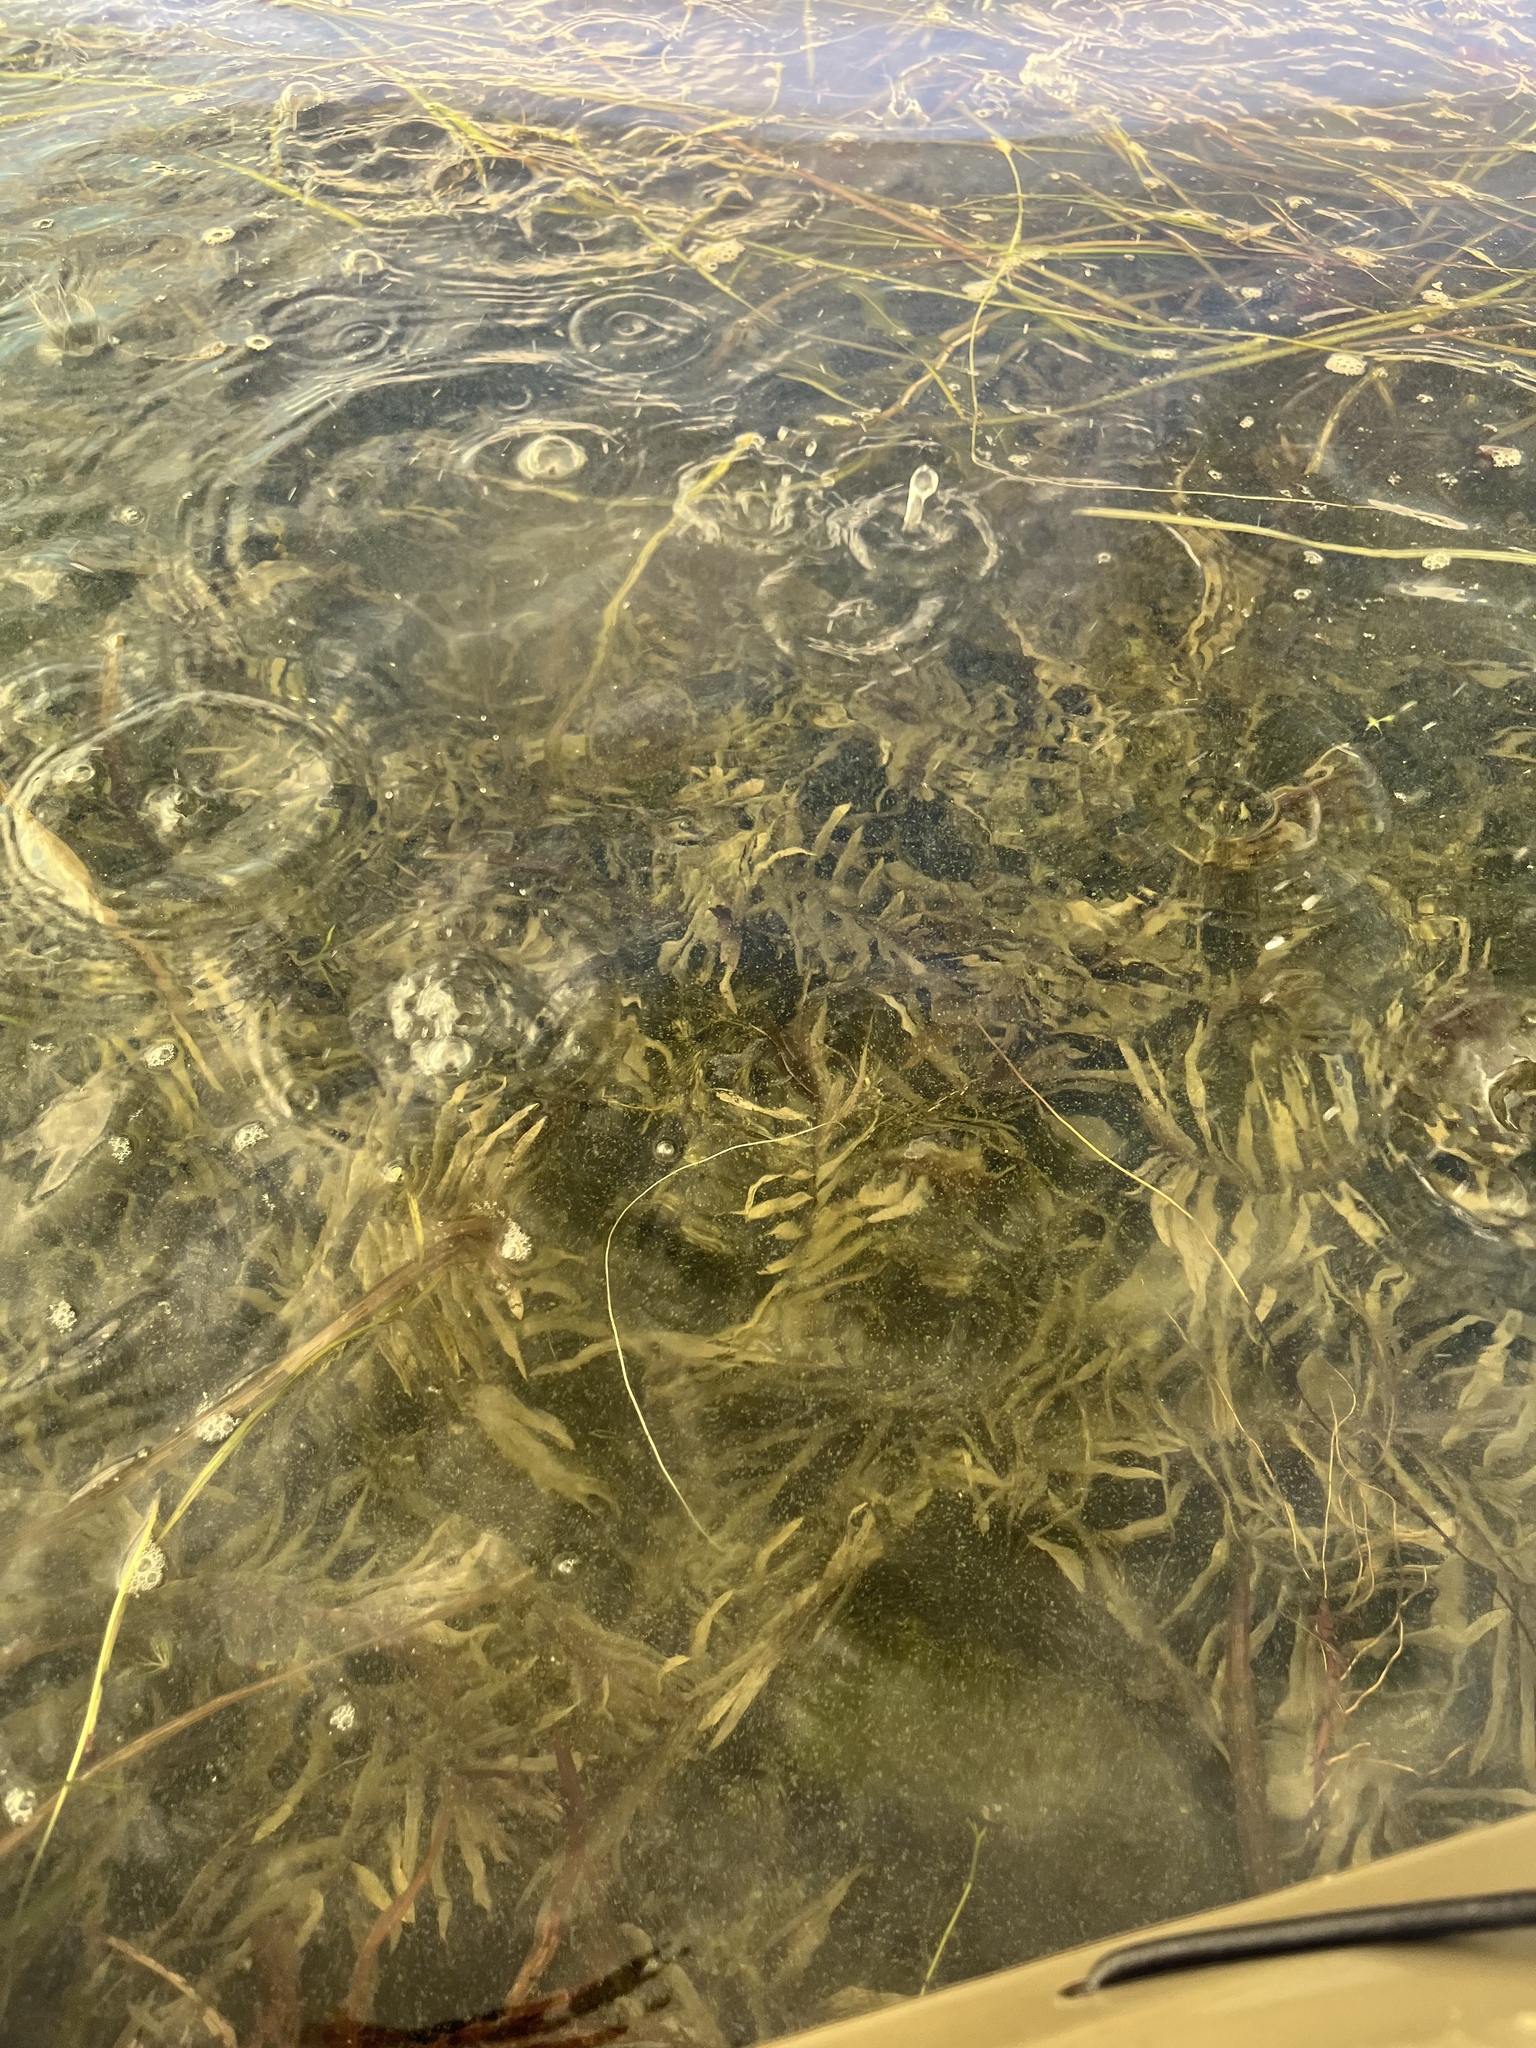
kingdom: Plantae
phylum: Tracheophyta
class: Liliopsida
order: Alismatales
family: Potamogetonaceae
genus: Potamogeton
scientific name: Potamogeton robbinsii
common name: Fern pondweed
